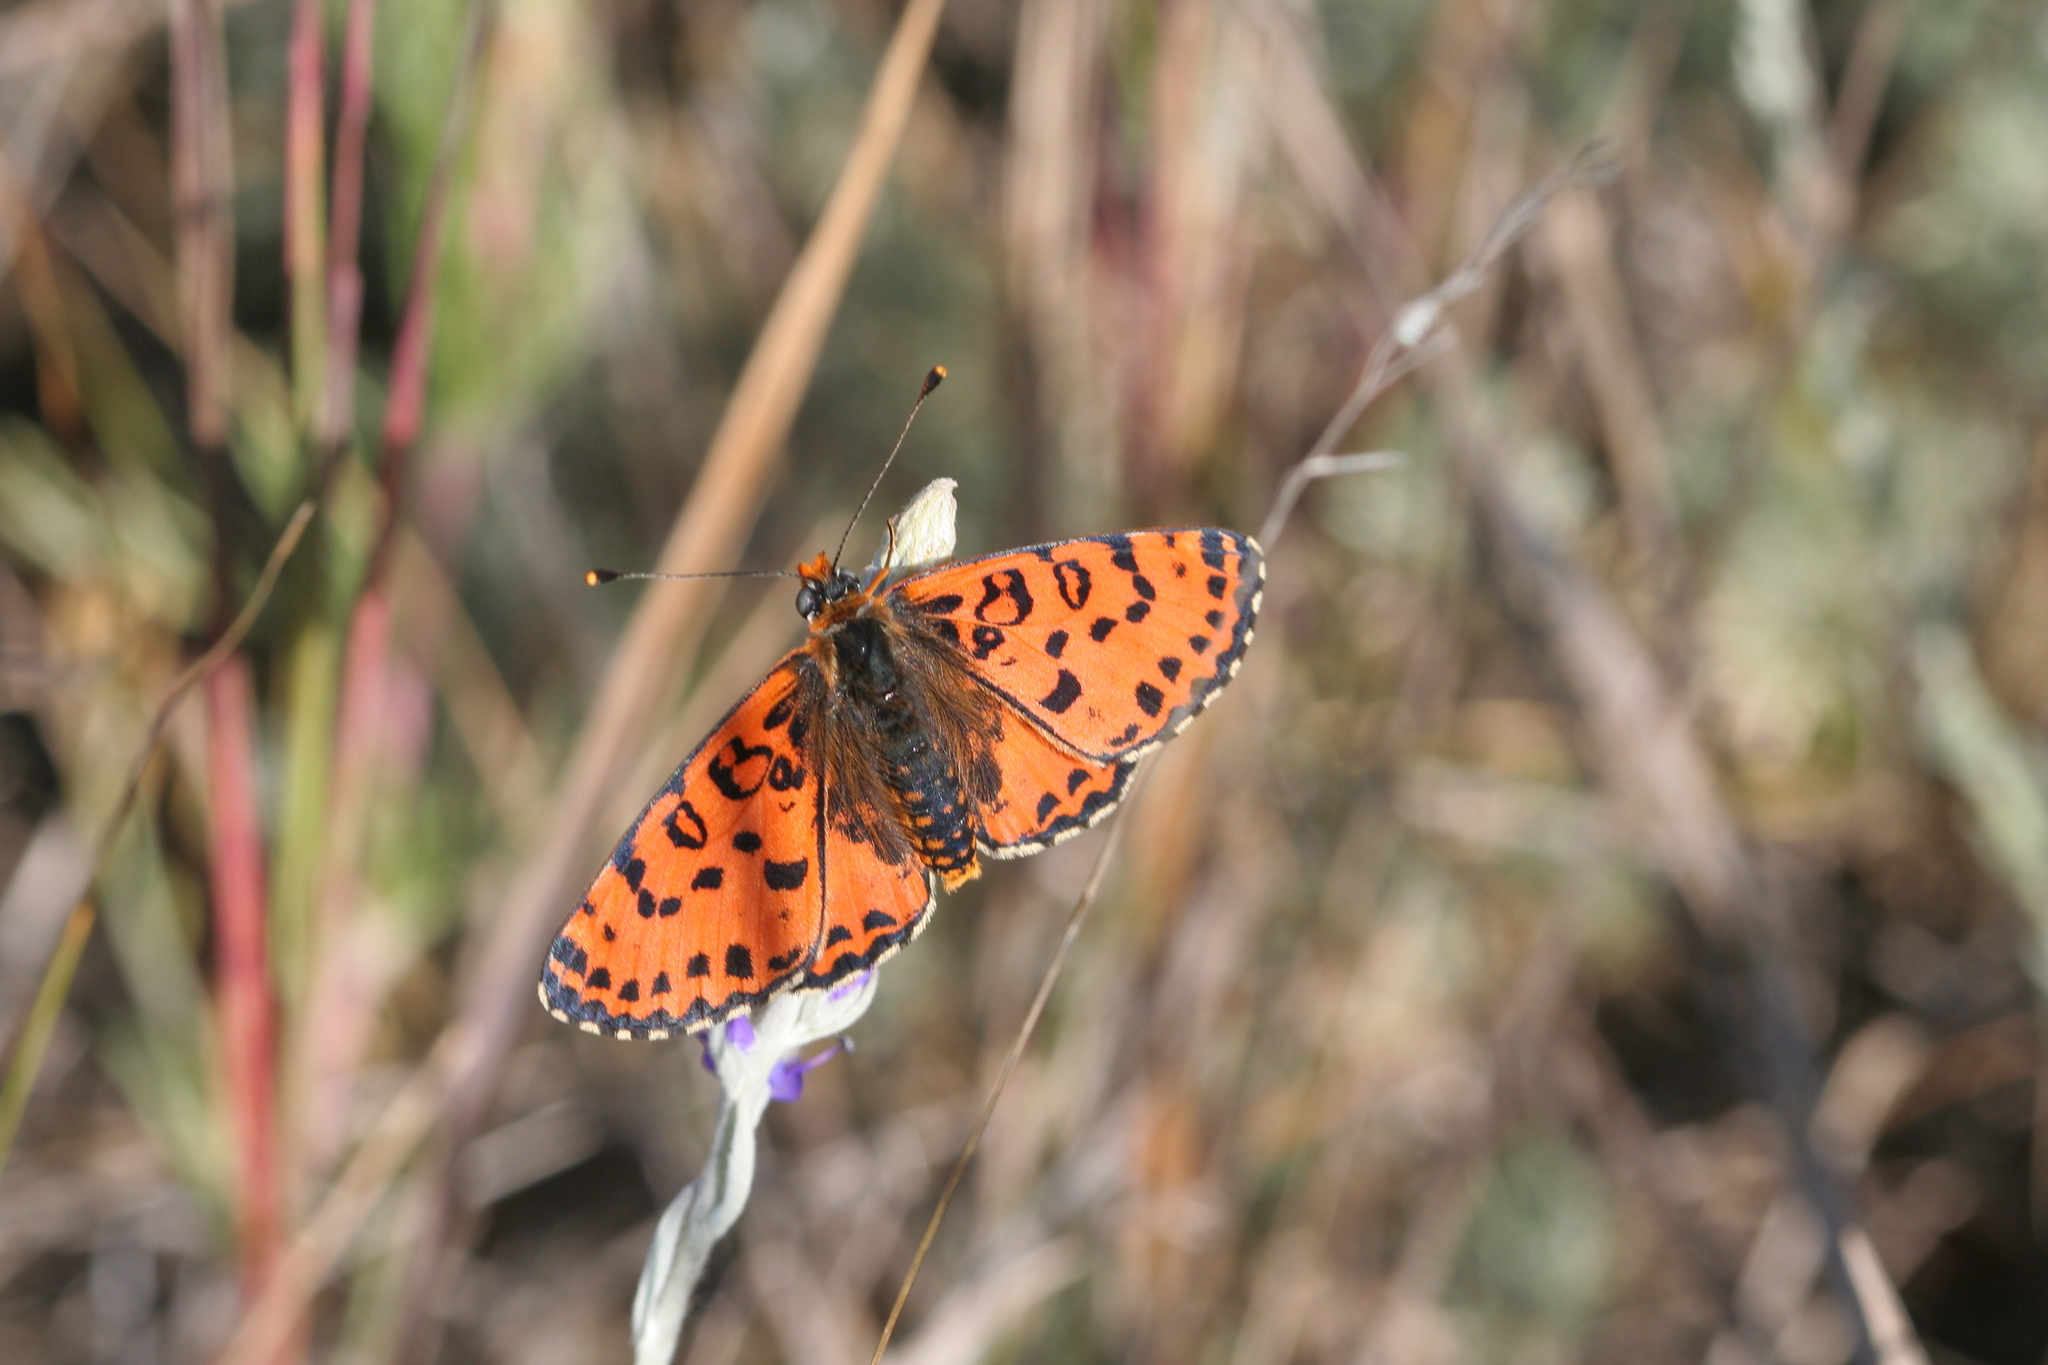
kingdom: Animalia
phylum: Arthropoda
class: Insecta
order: Lepidoptera
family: Nymphalidae
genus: Melitaea
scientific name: Melitaea didyma
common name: Spotted fritillary
